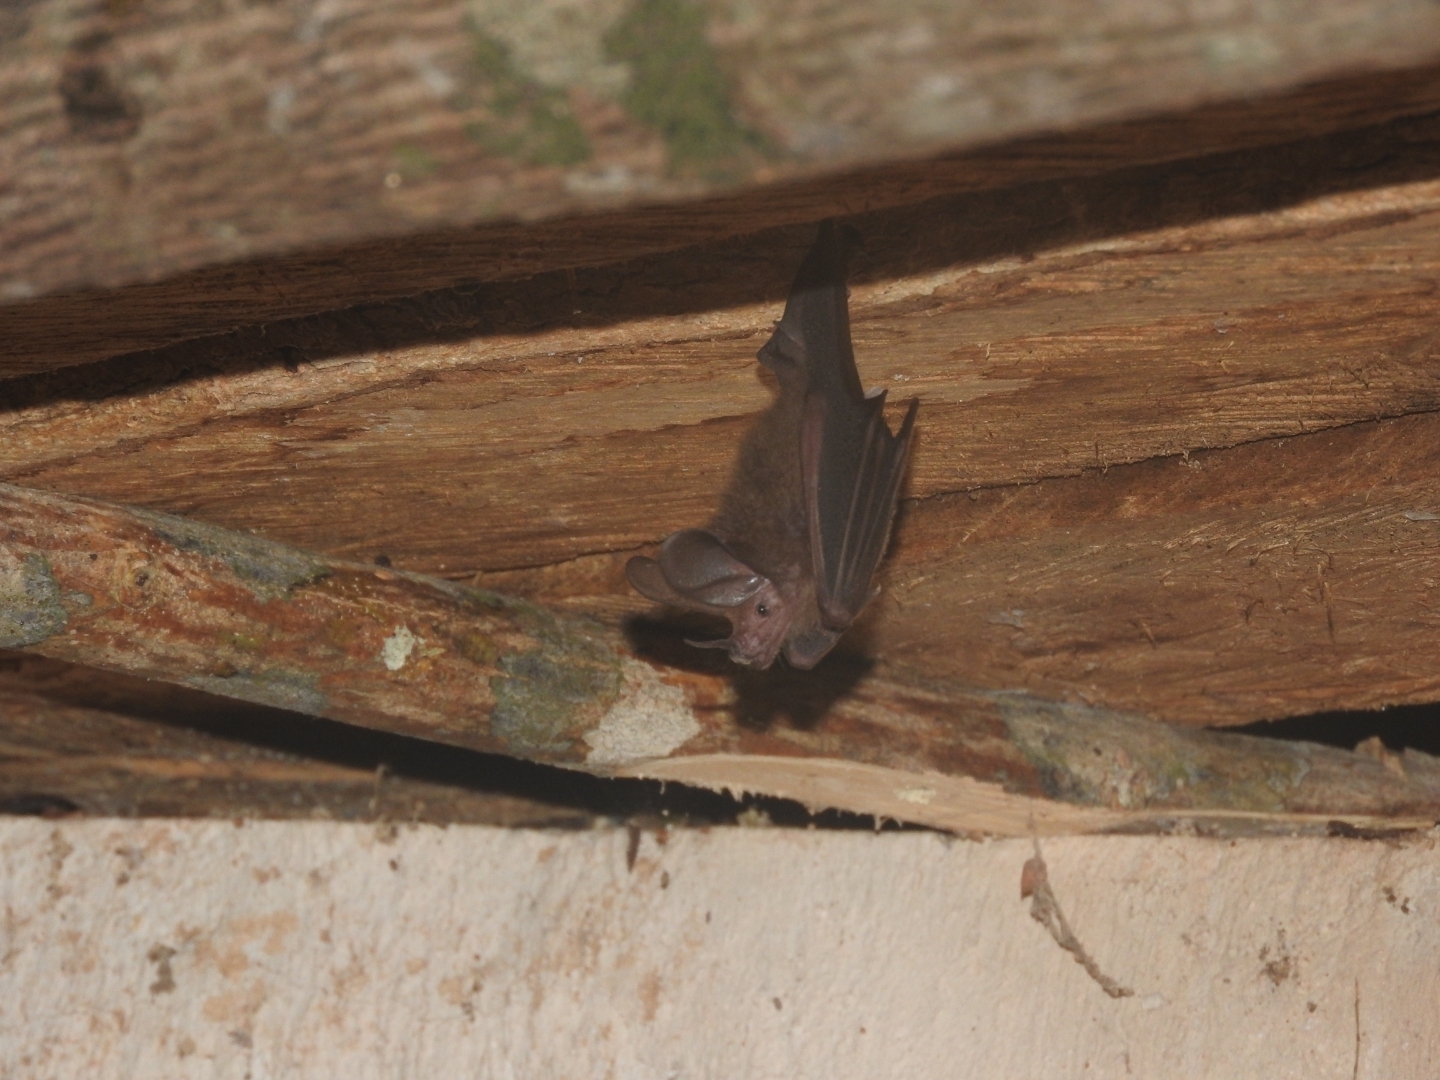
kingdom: Animalia
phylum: Chordata
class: Mammalia
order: Chiroptera
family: Phyllostomidae
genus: Micronycteris
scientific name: Micronycteris microtis
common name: Common big-eared bat
